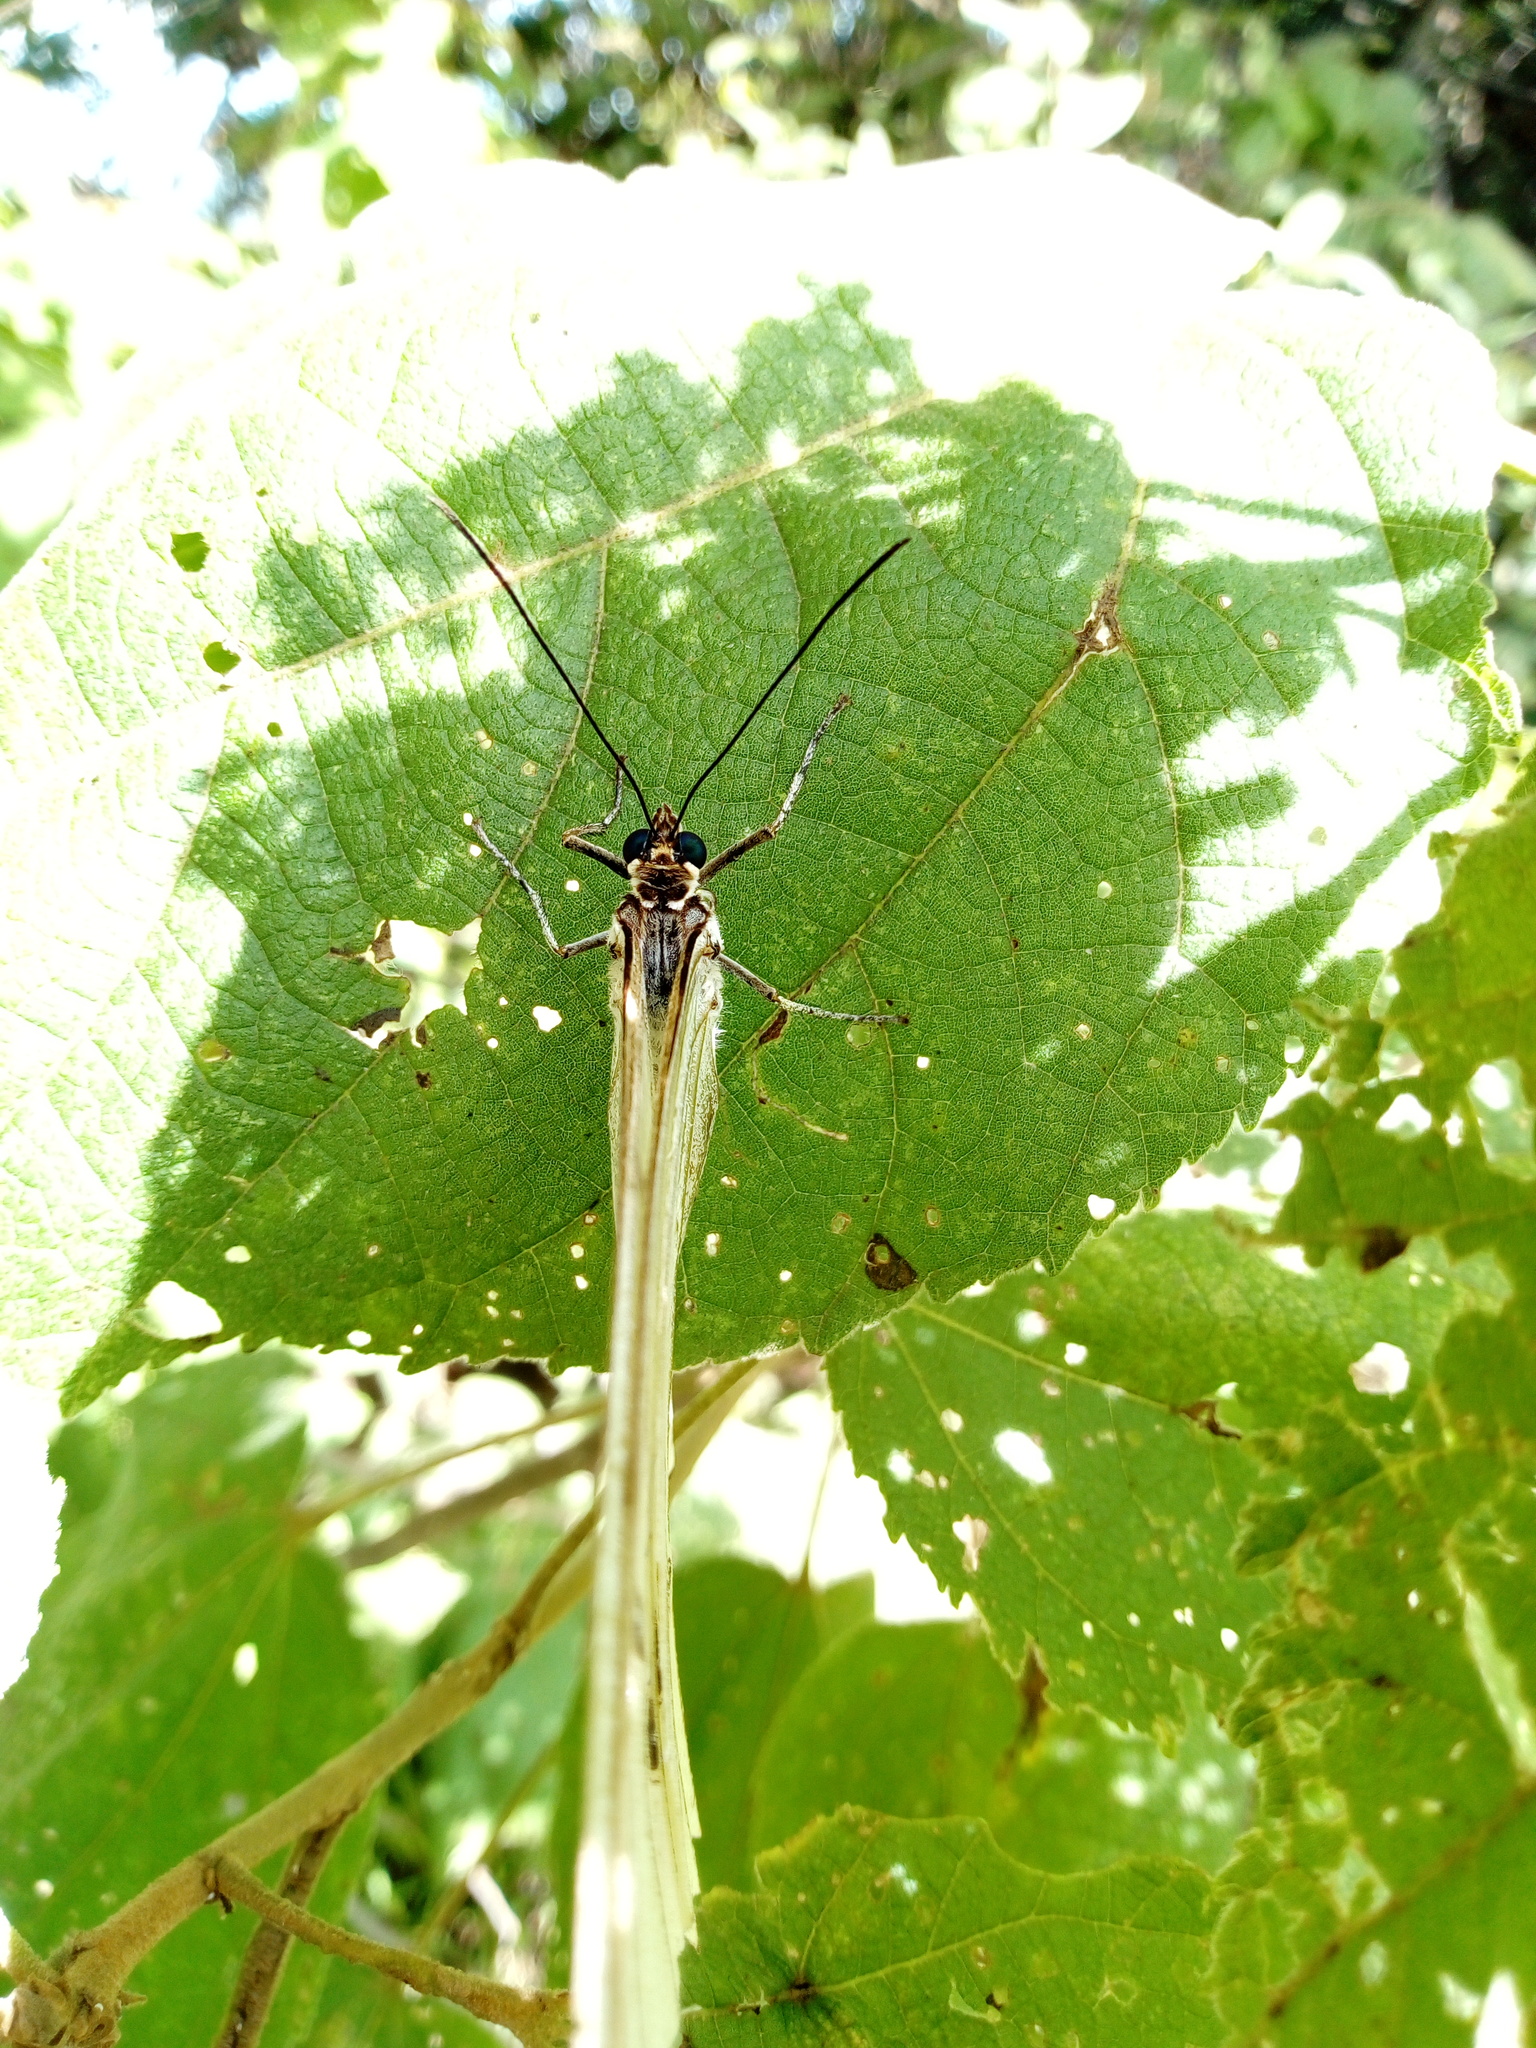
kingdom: Animalia
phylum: Arthropoda
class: Insecta
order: Lepidoptera
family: Nymphalidae
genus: Morpho
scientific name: Morpho polyphemus
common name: White morpho
